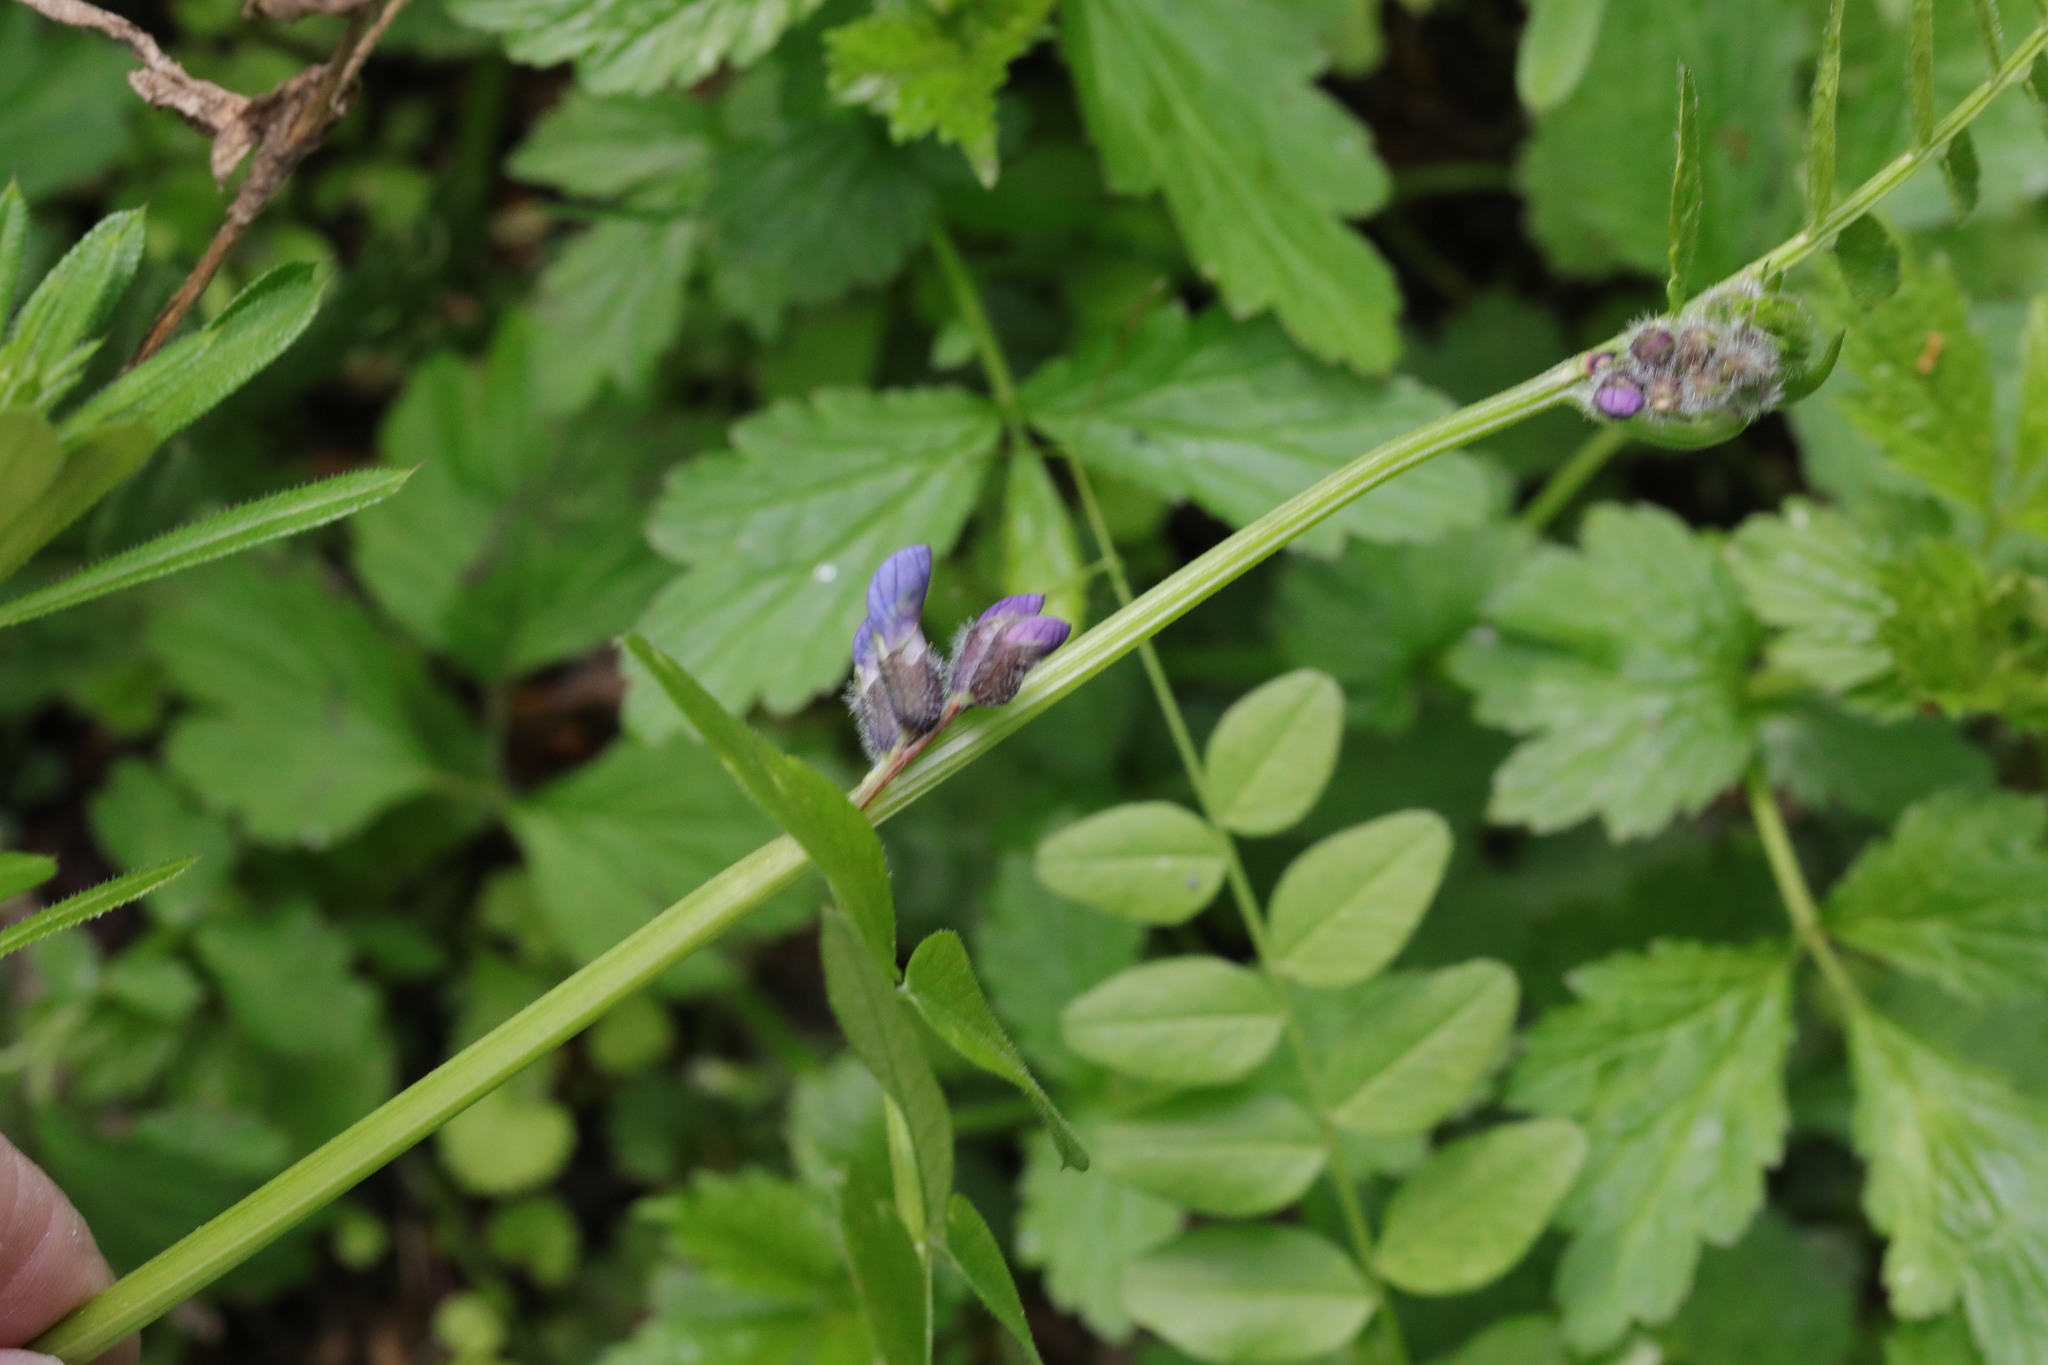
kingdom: Plantae
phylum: Tracheophyta
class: Magnoliopsida
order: Fabales
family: Fabaceae
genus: Vicia
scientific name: Vicia sepium
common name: Bush vetch
